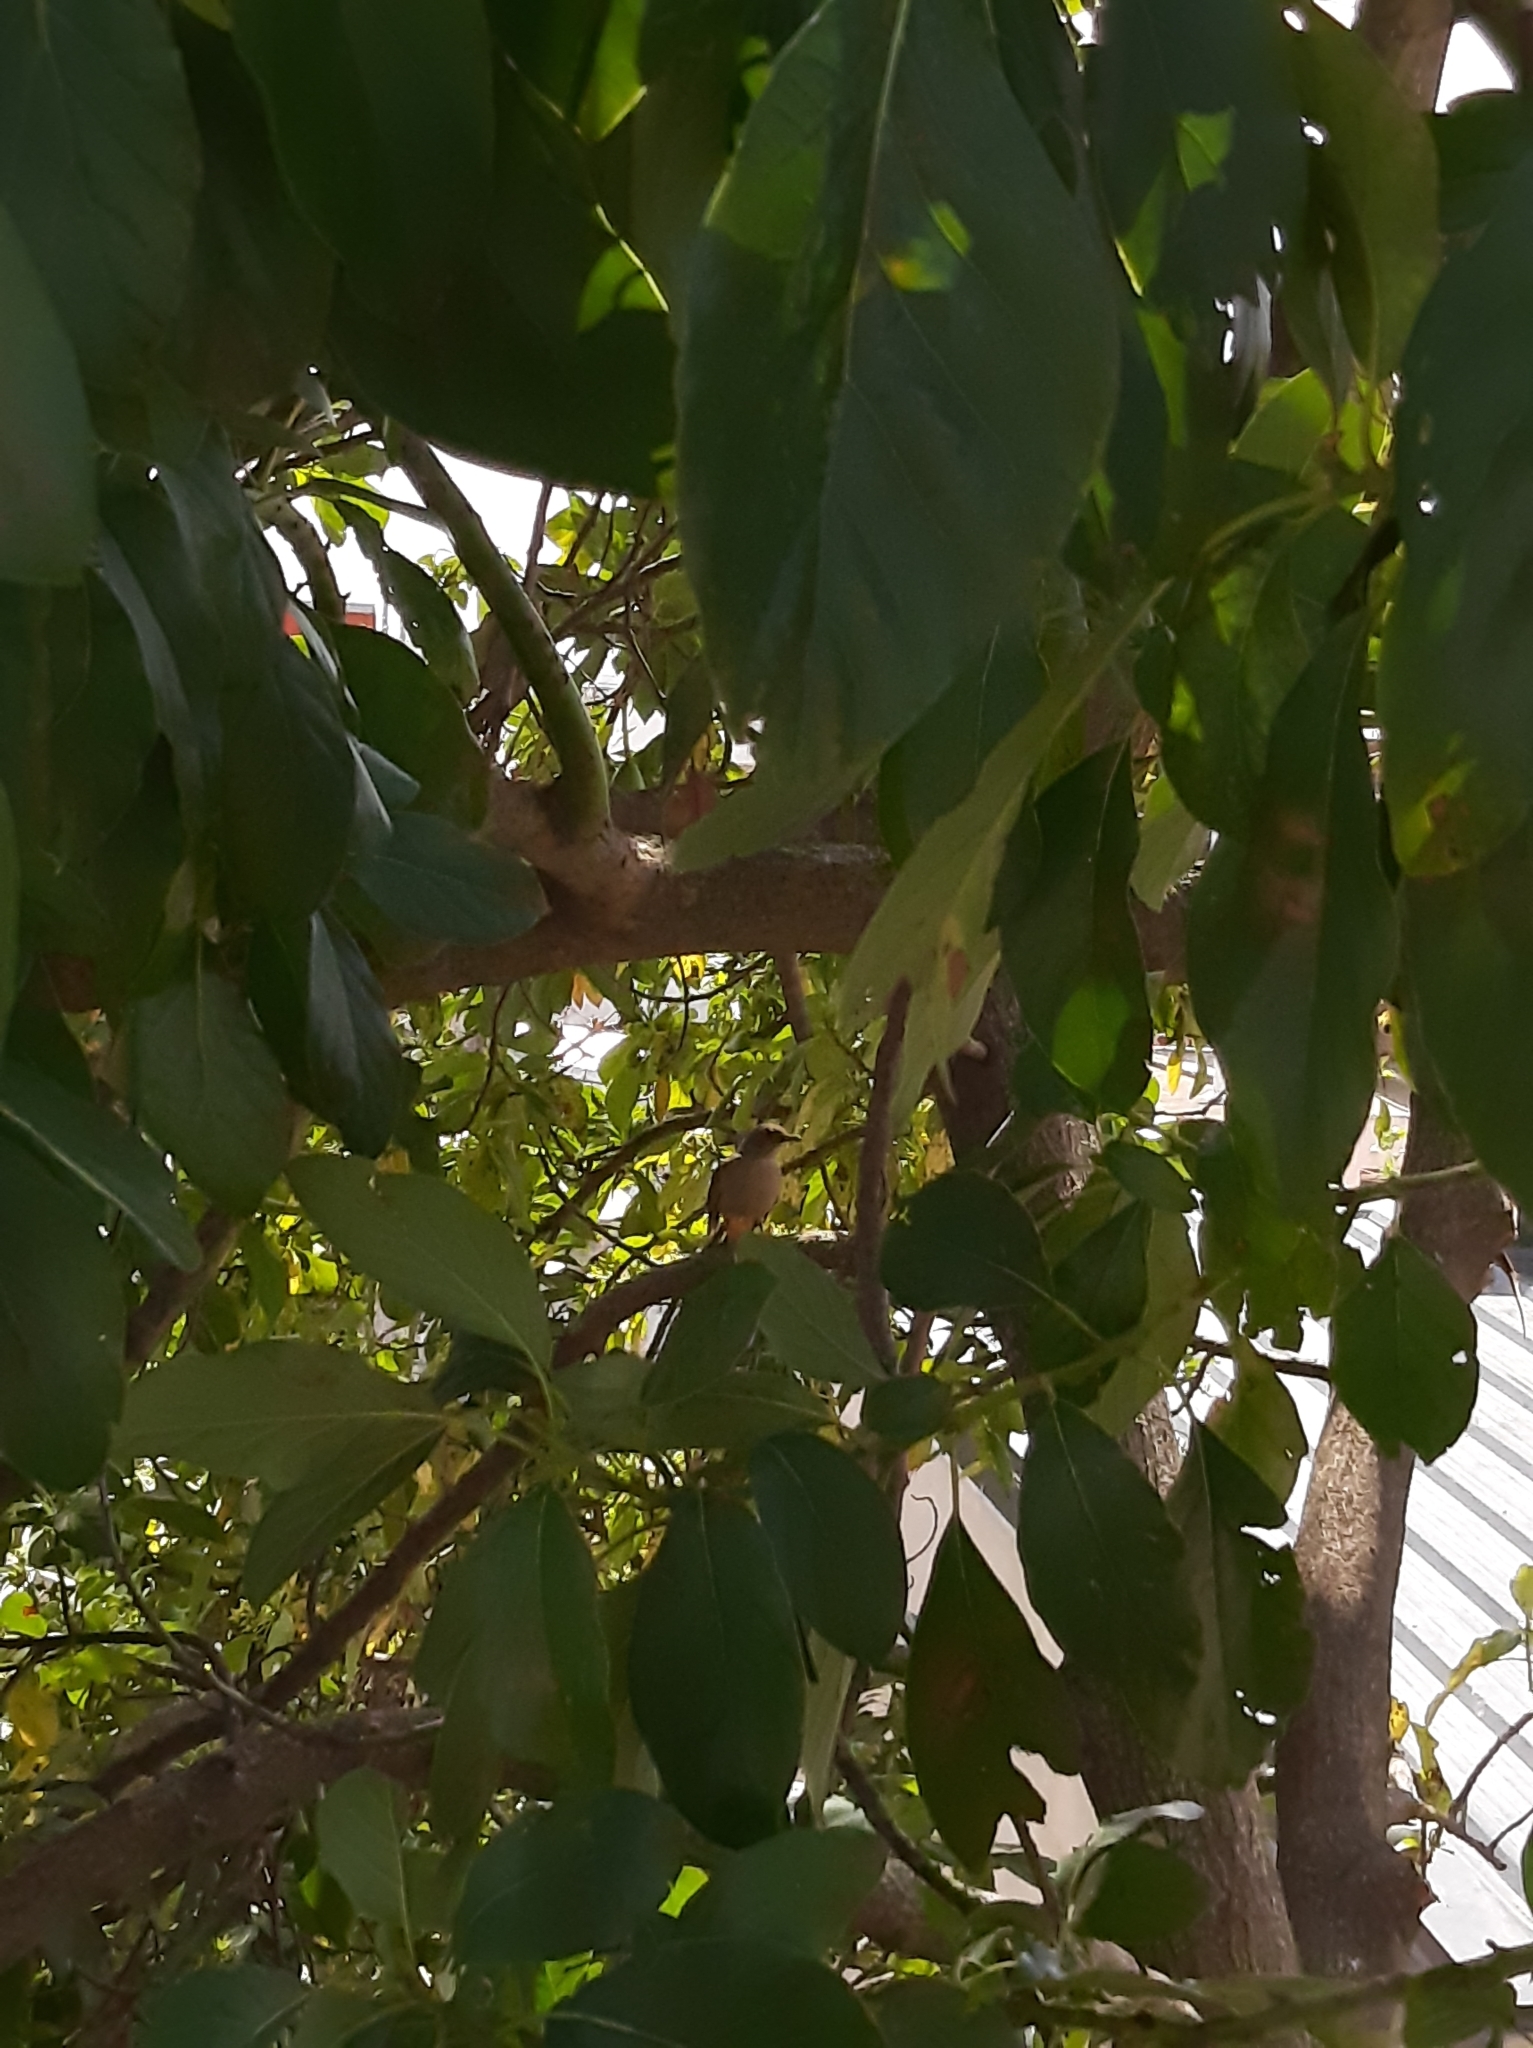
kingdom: Animalia
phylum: Chordata
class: Aves
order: Passeriformes
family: Turdidae
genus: Turdus
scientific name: Turdus rufiventris
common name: Rufous-bellied thrush
